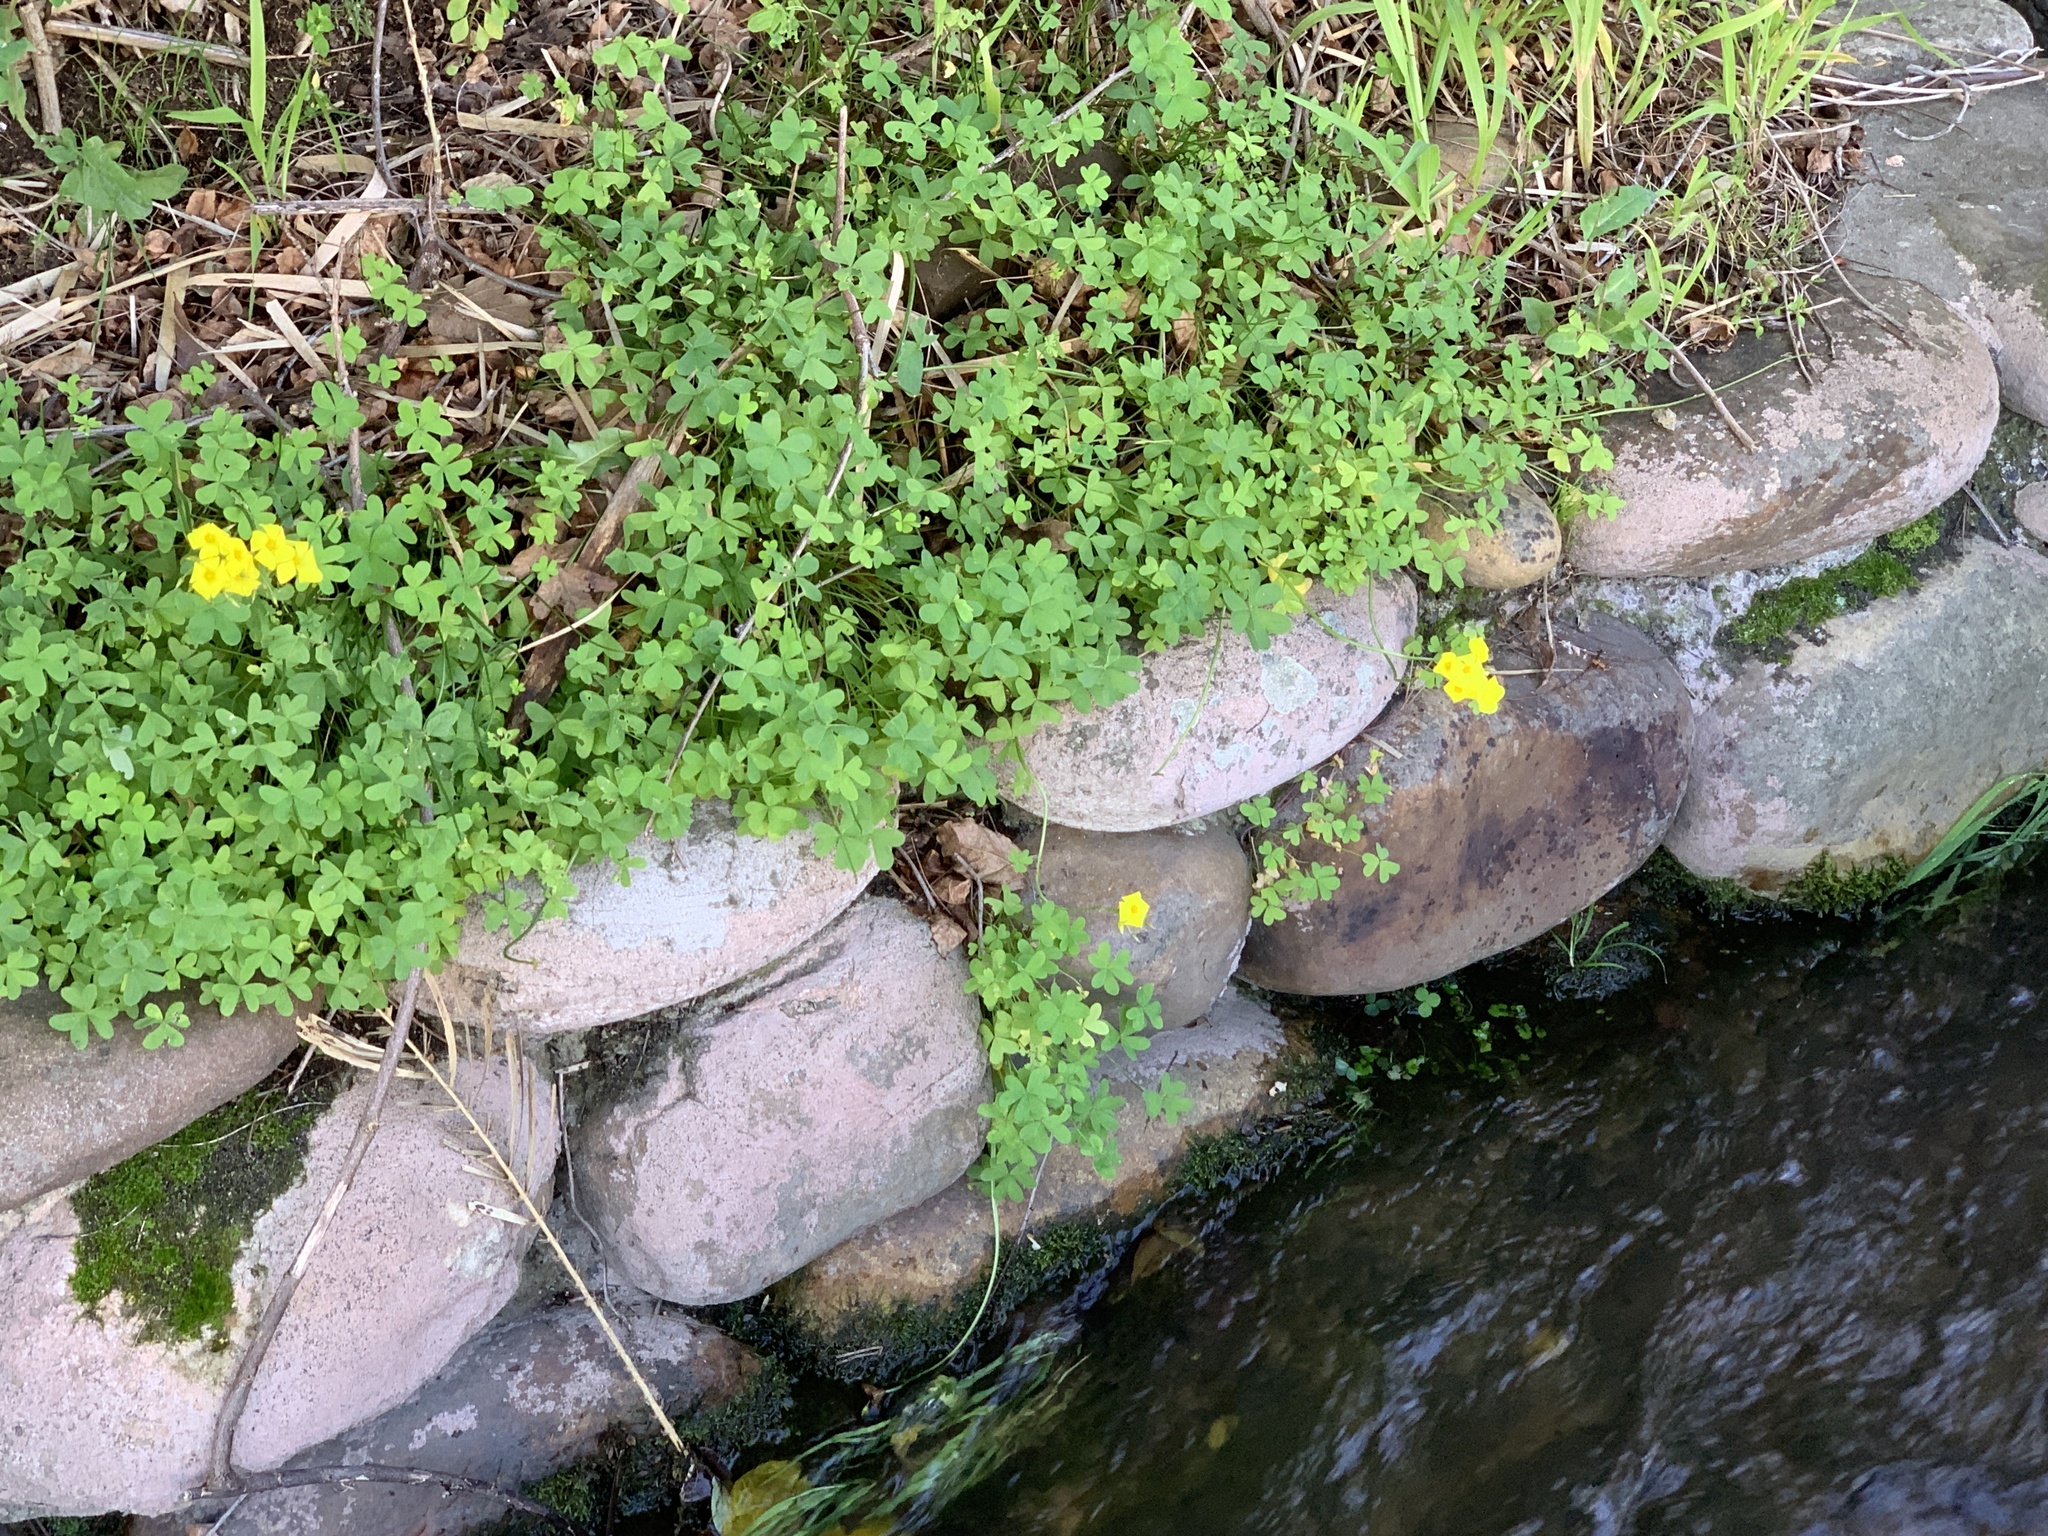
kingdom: Plantae
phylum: Tracheophyta
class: Magnoliopsida
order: Oxalidales
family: Oxalidaceae
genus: Oxalis
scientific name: Oxalis pes-caprae
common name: Bermuda-buttercup
